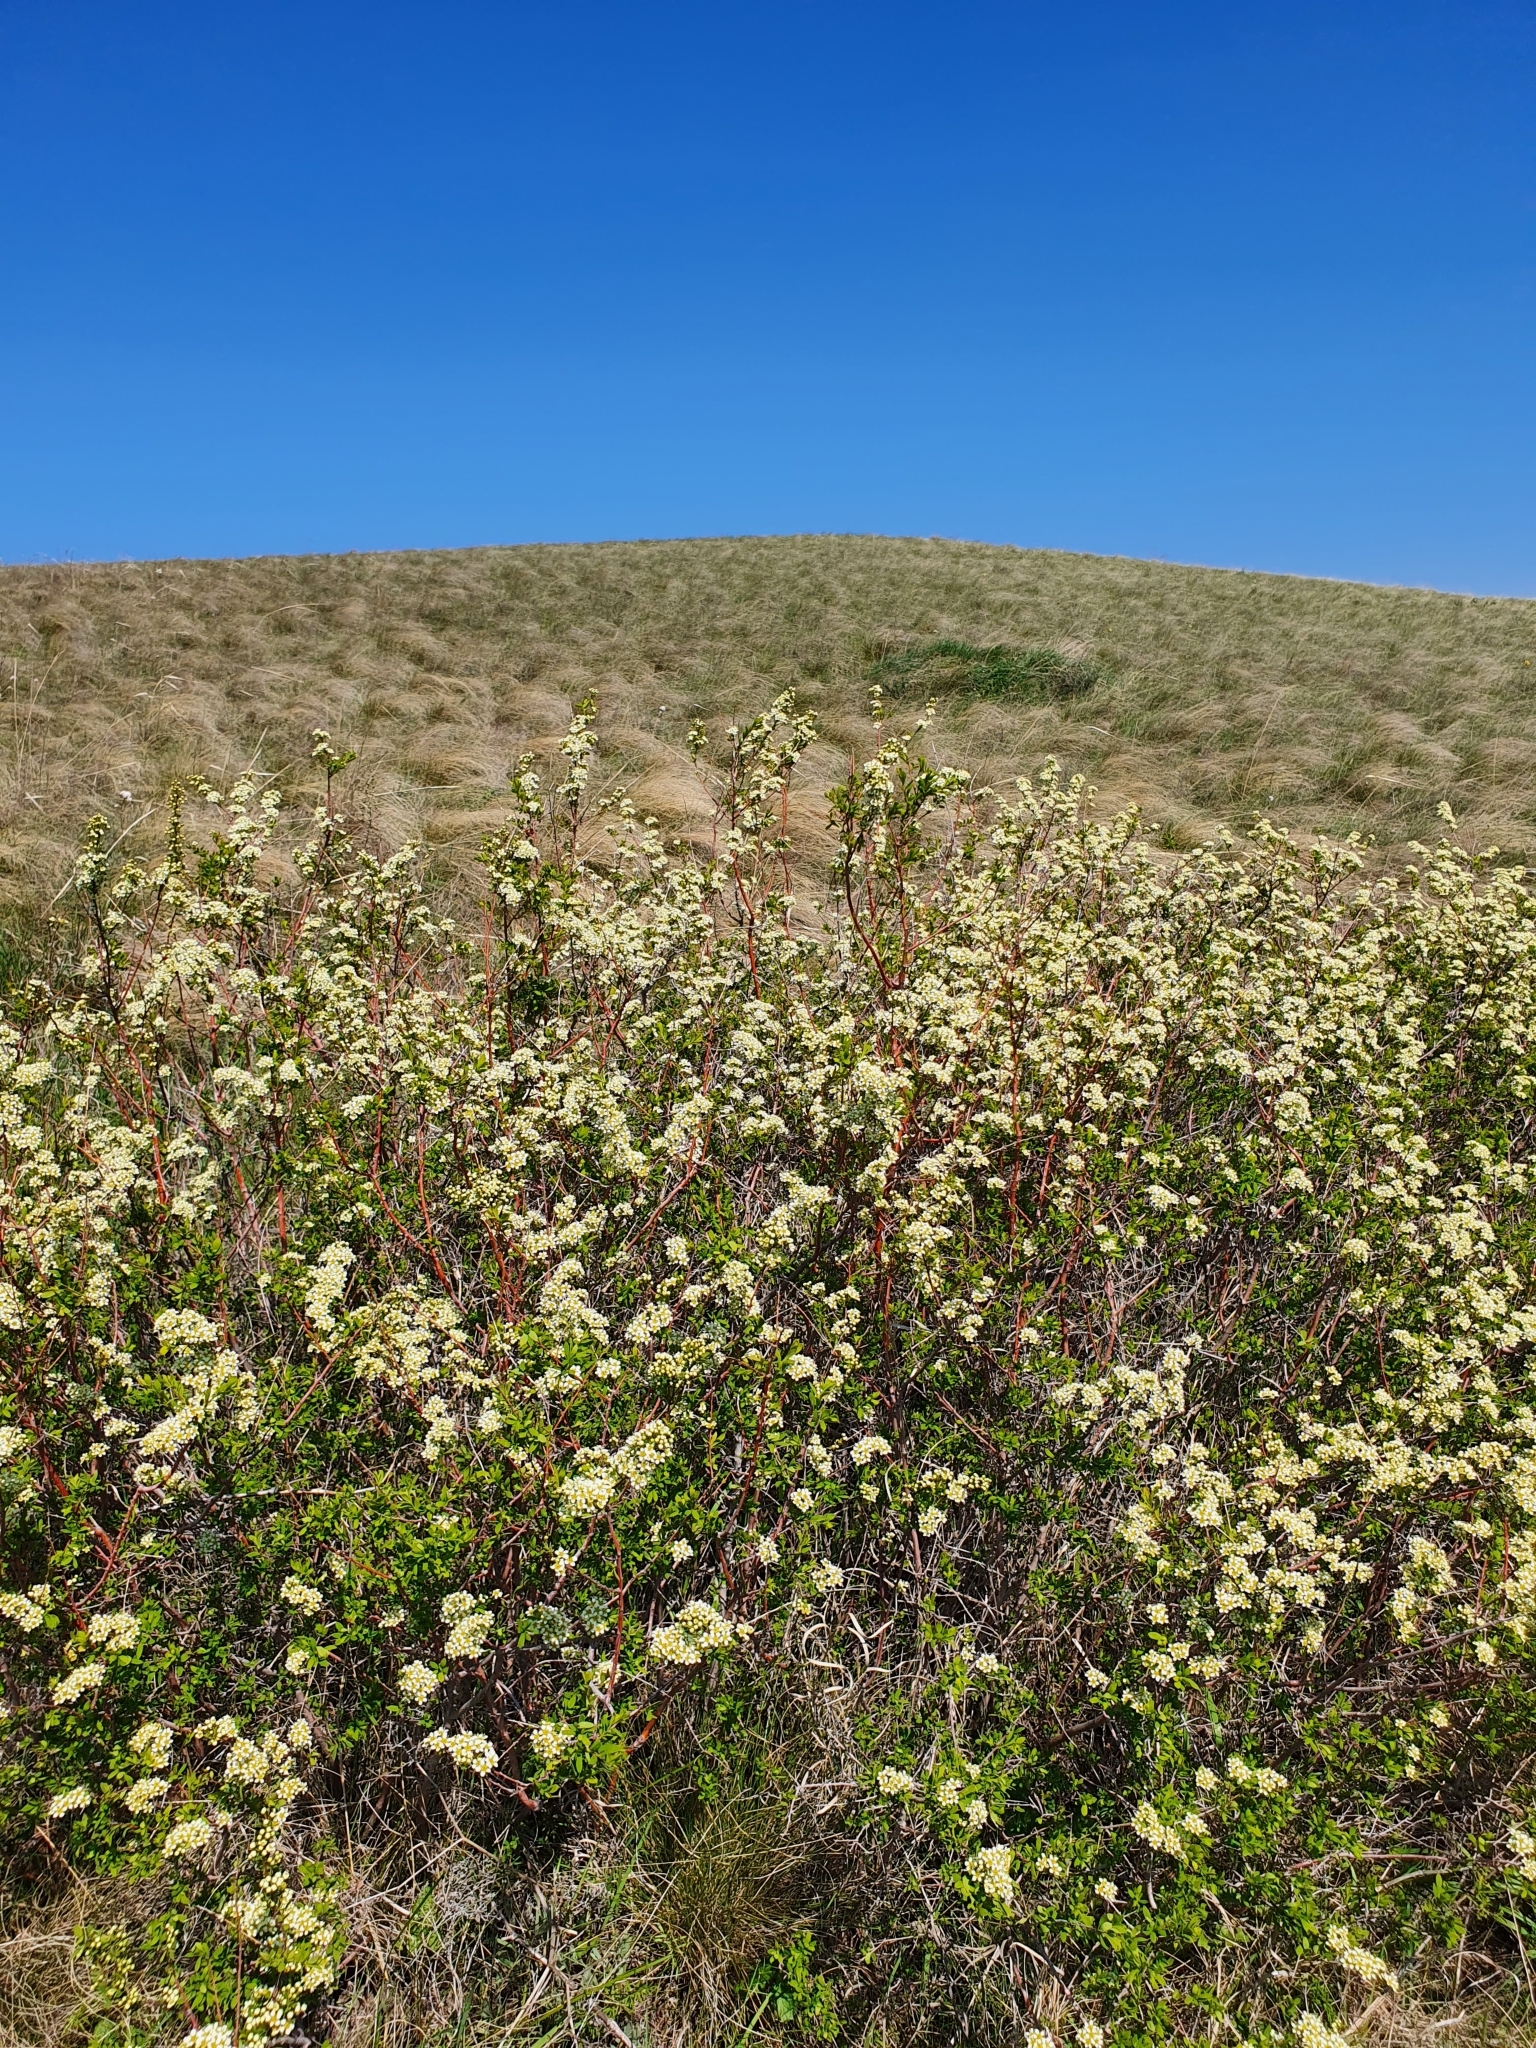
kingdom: Plantae
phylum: Tracheophyta
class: Magnoliopsida
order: Rosales
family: Rosaceae
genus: Spiraea
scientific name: Spiraea hypericifolia
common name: Iberian spirea
